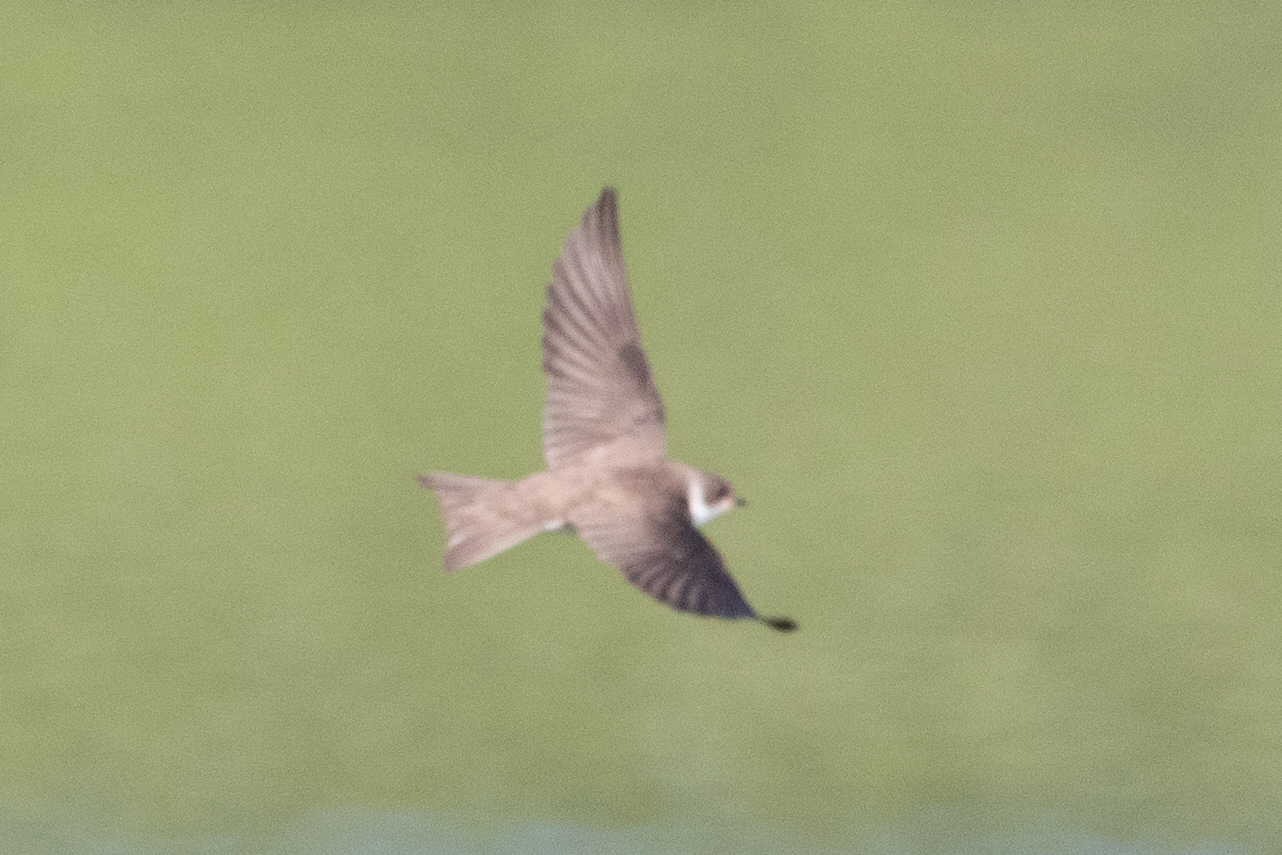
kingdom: Animalia
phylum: Chordata
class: Aves
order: Passeriformes
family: Hirundinidae
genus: Riparia
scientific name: Riparia riparia
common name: Sand martin
